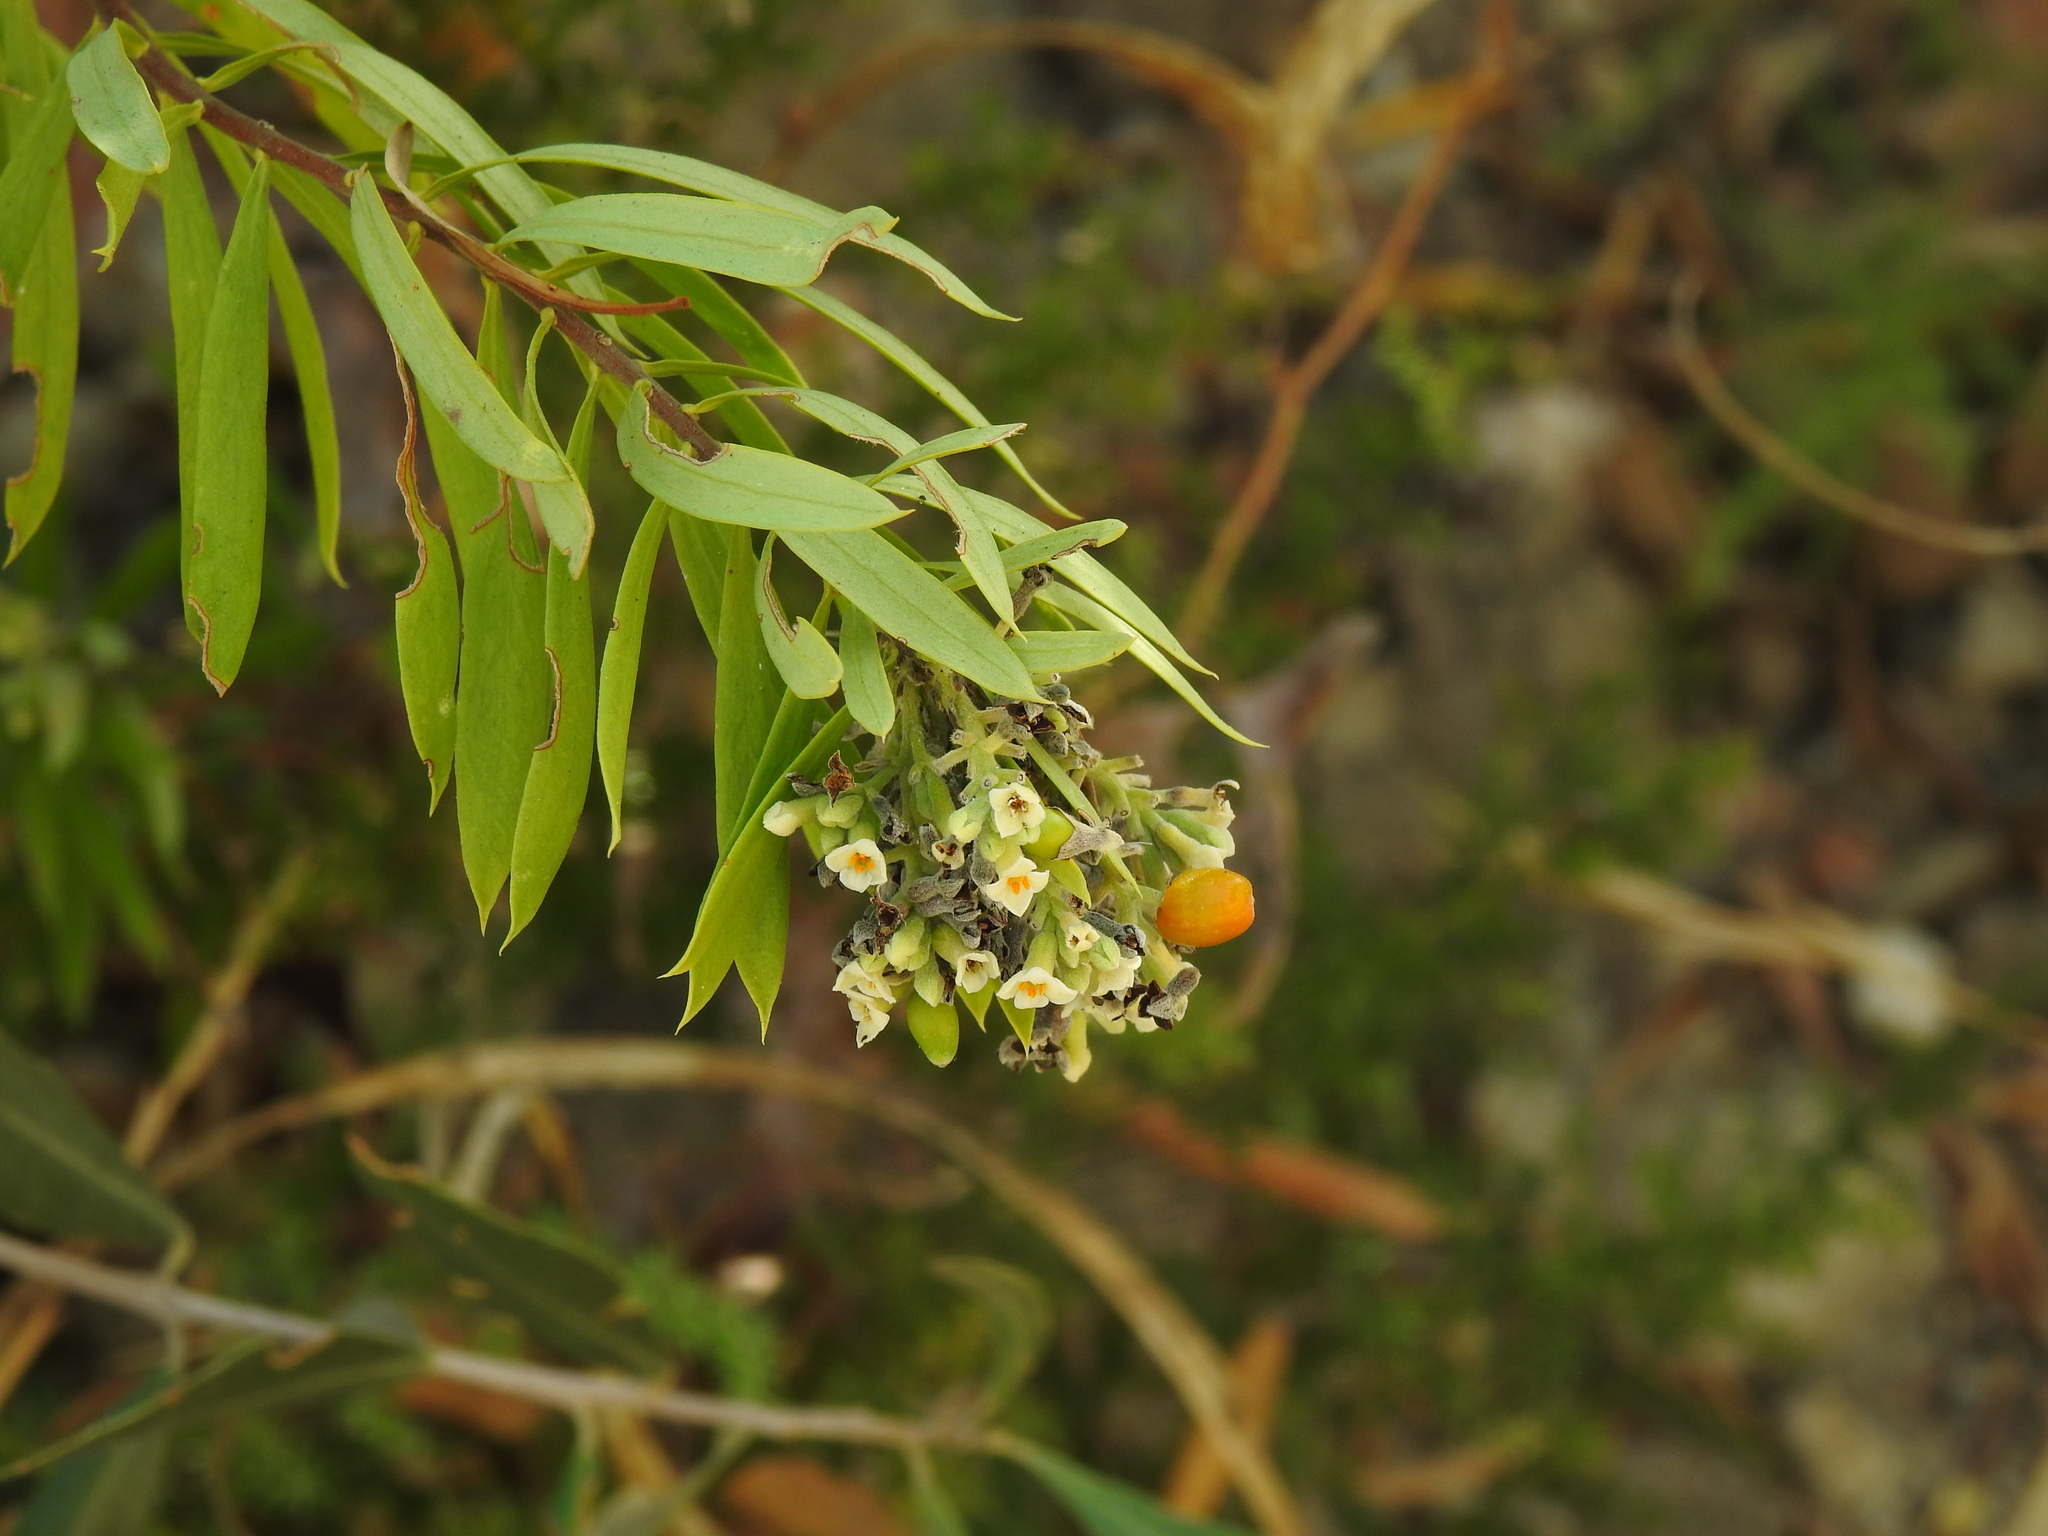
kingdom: Plantae
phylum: Tracheophyta
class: Magnoliopsida
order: Malvales
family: Thymelaeaceae
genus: Daphne
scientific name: Daphne gnidium
